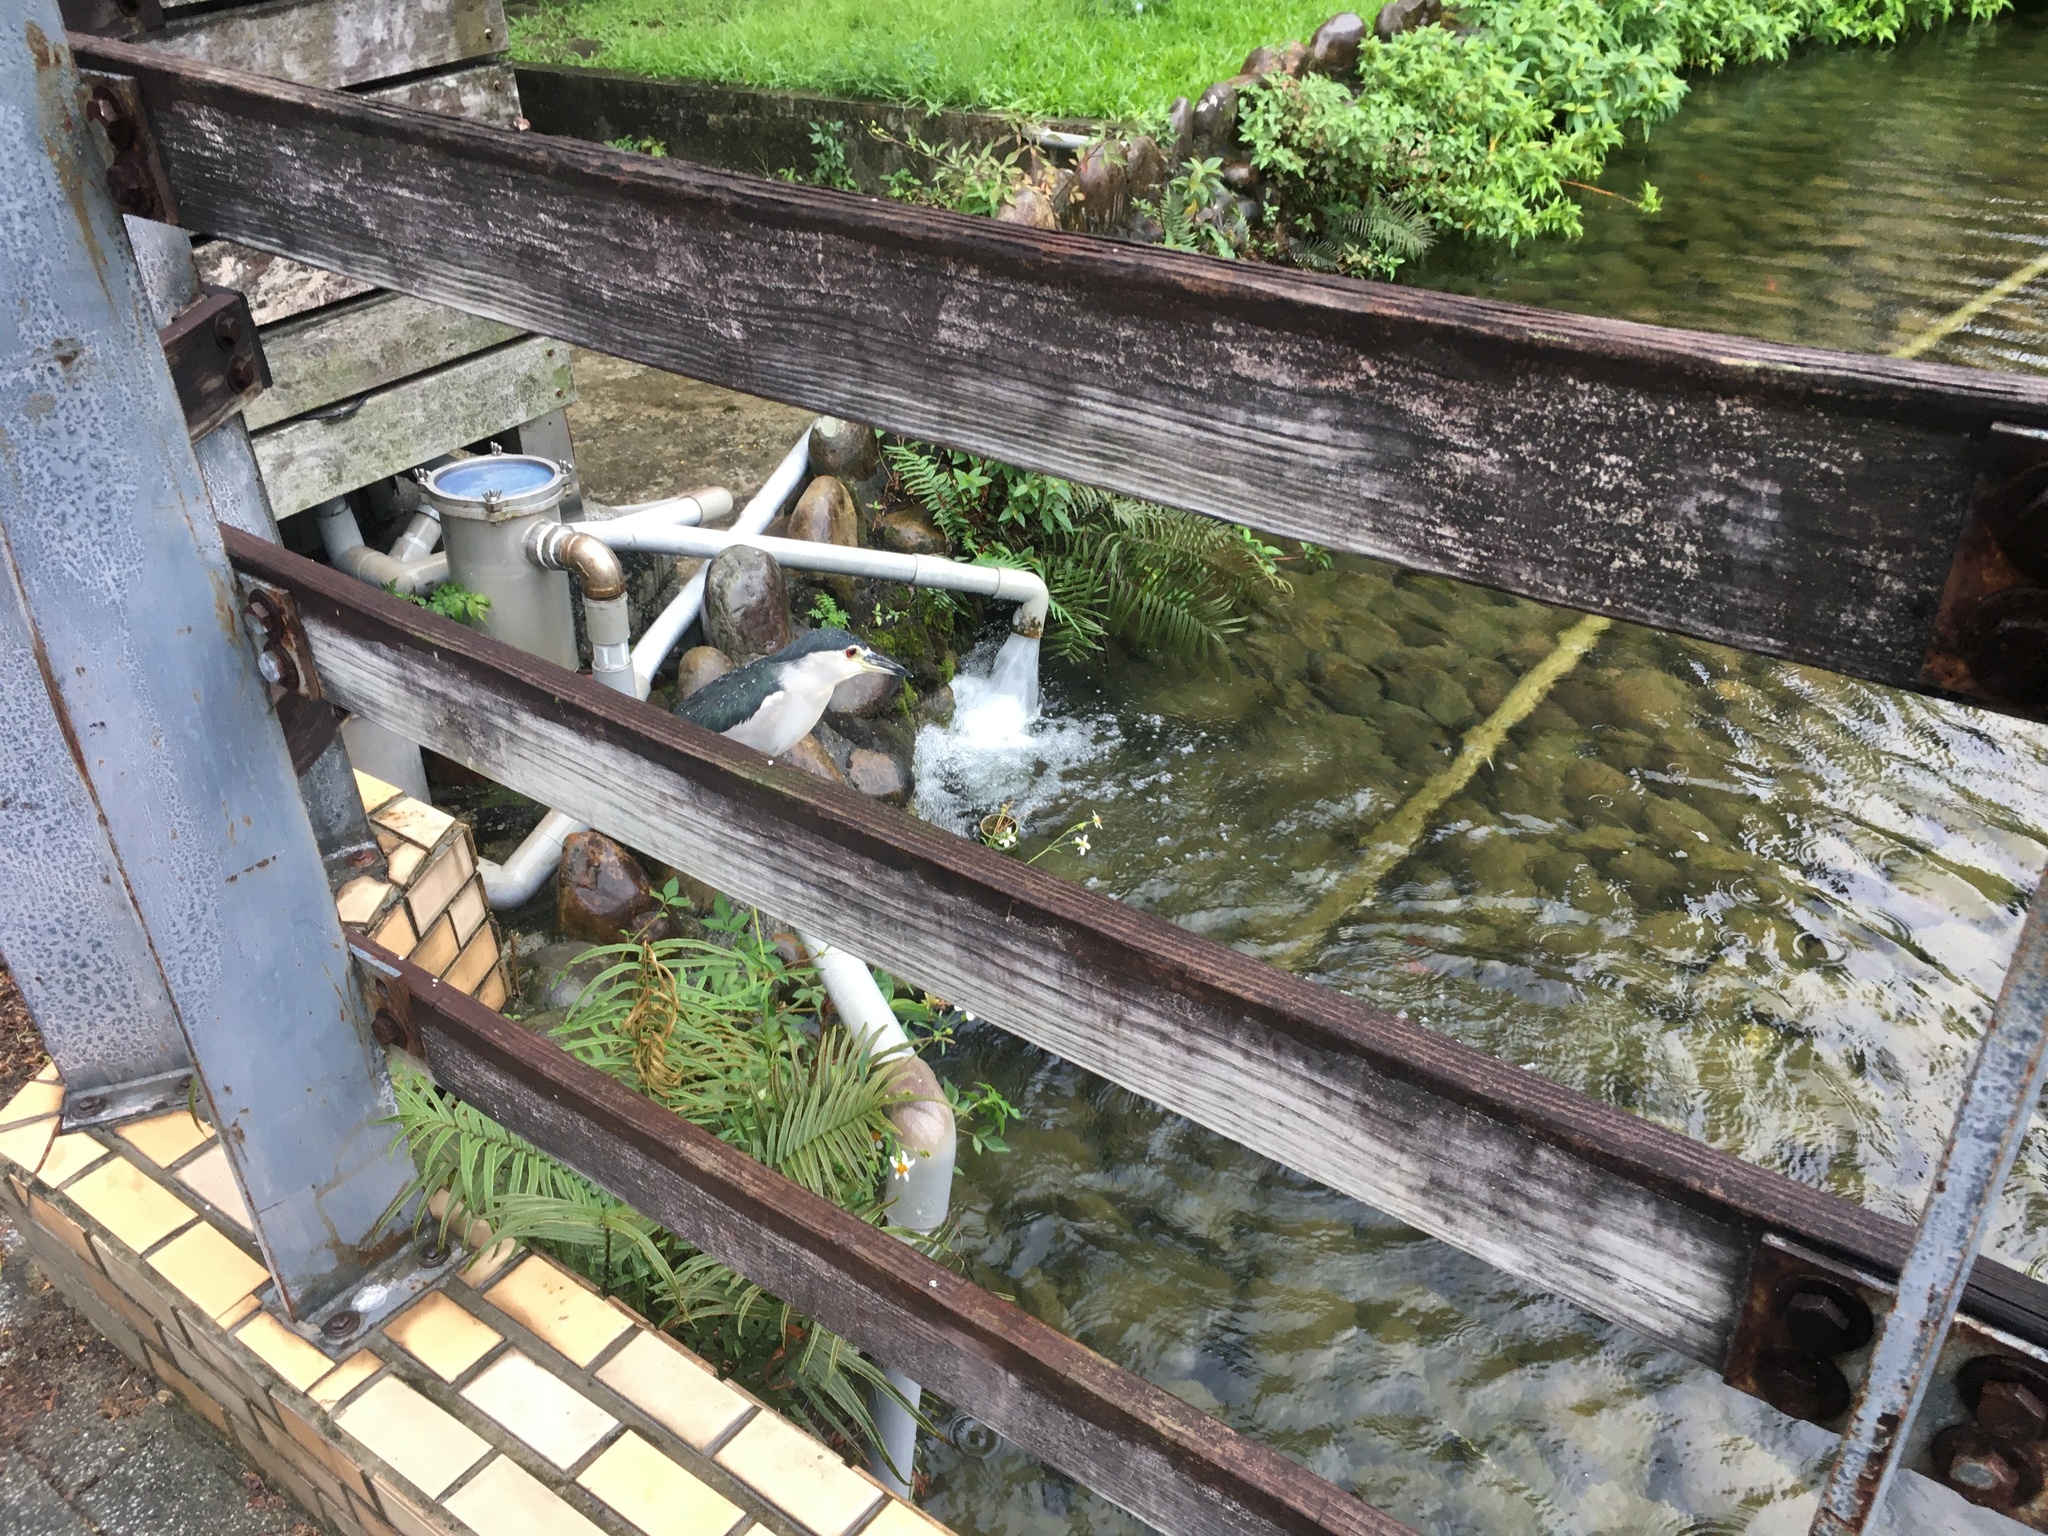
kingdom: Animalia
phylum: Chordata
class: Aves
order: Pelecaniformes
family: Ardeidae
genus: Nycticorax
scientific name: Nycticorax nycticorax
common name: Black-crowned night heron
